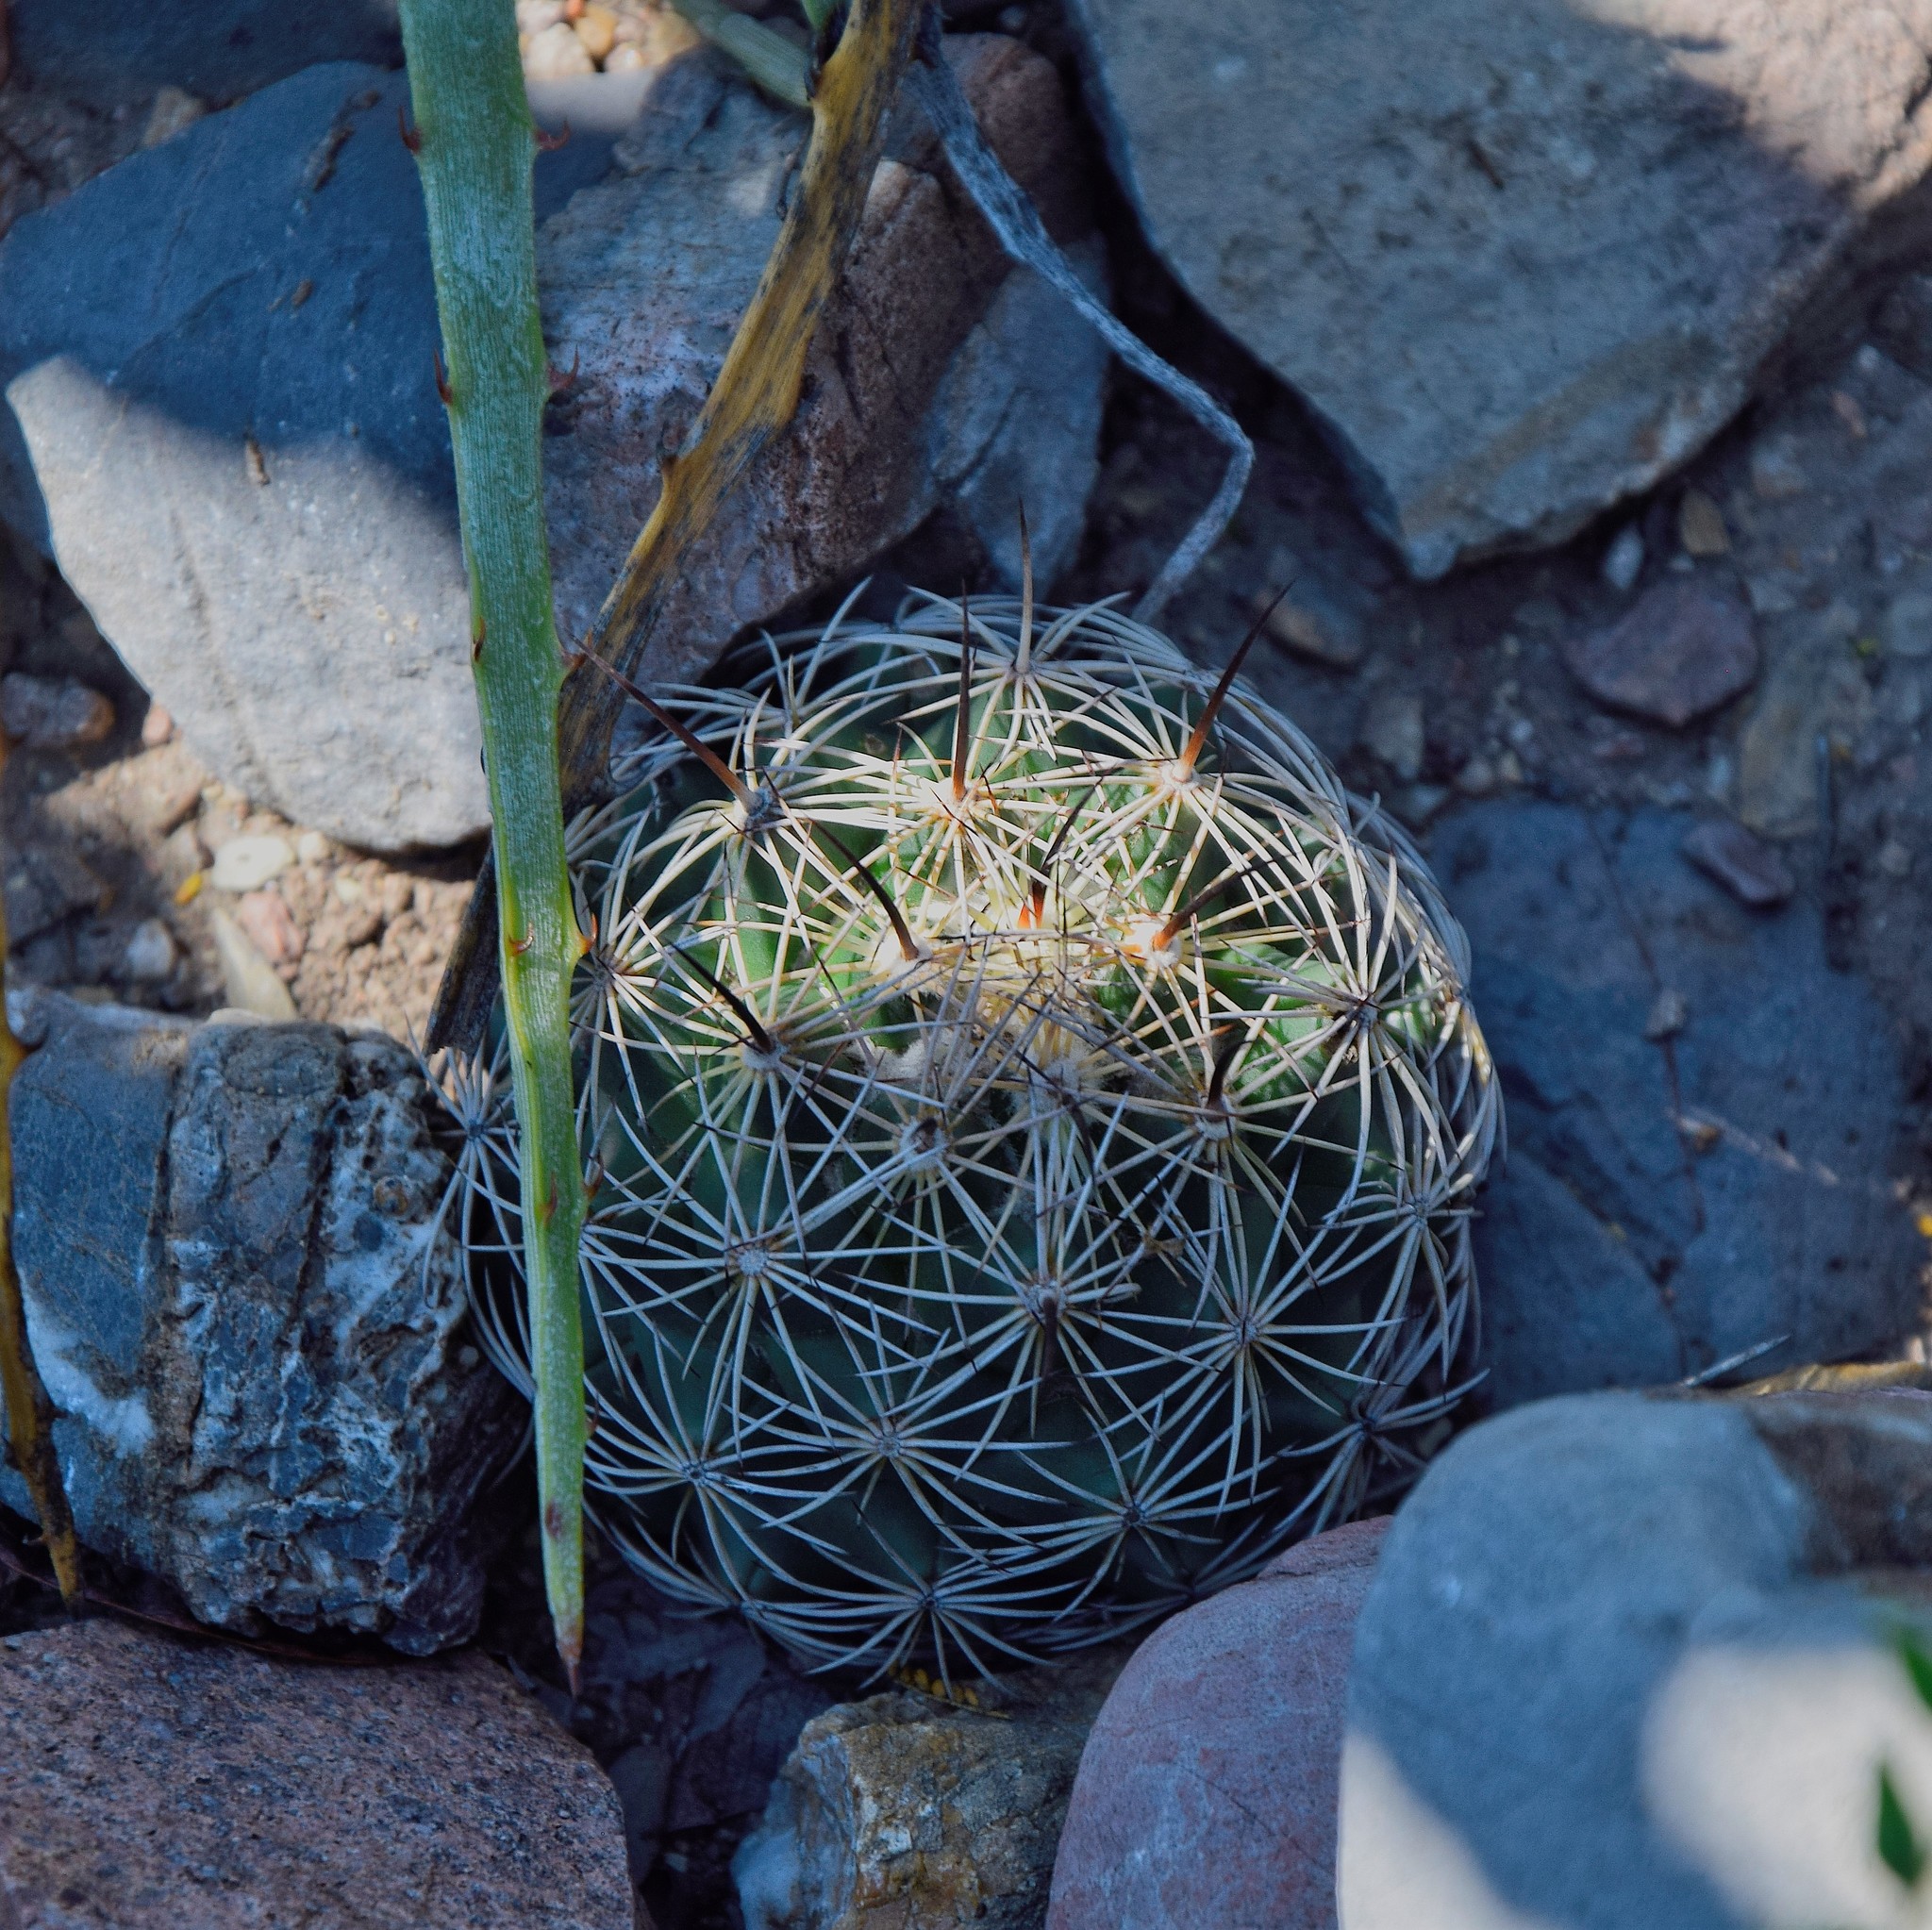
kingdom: Plantae
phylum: Tracheophyta
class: Magnoliopsida
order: Caryophyllales
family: Cactaceae
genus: Coryphantha
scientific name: Coryphantha cornifera
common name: Rhinoceros cactus
